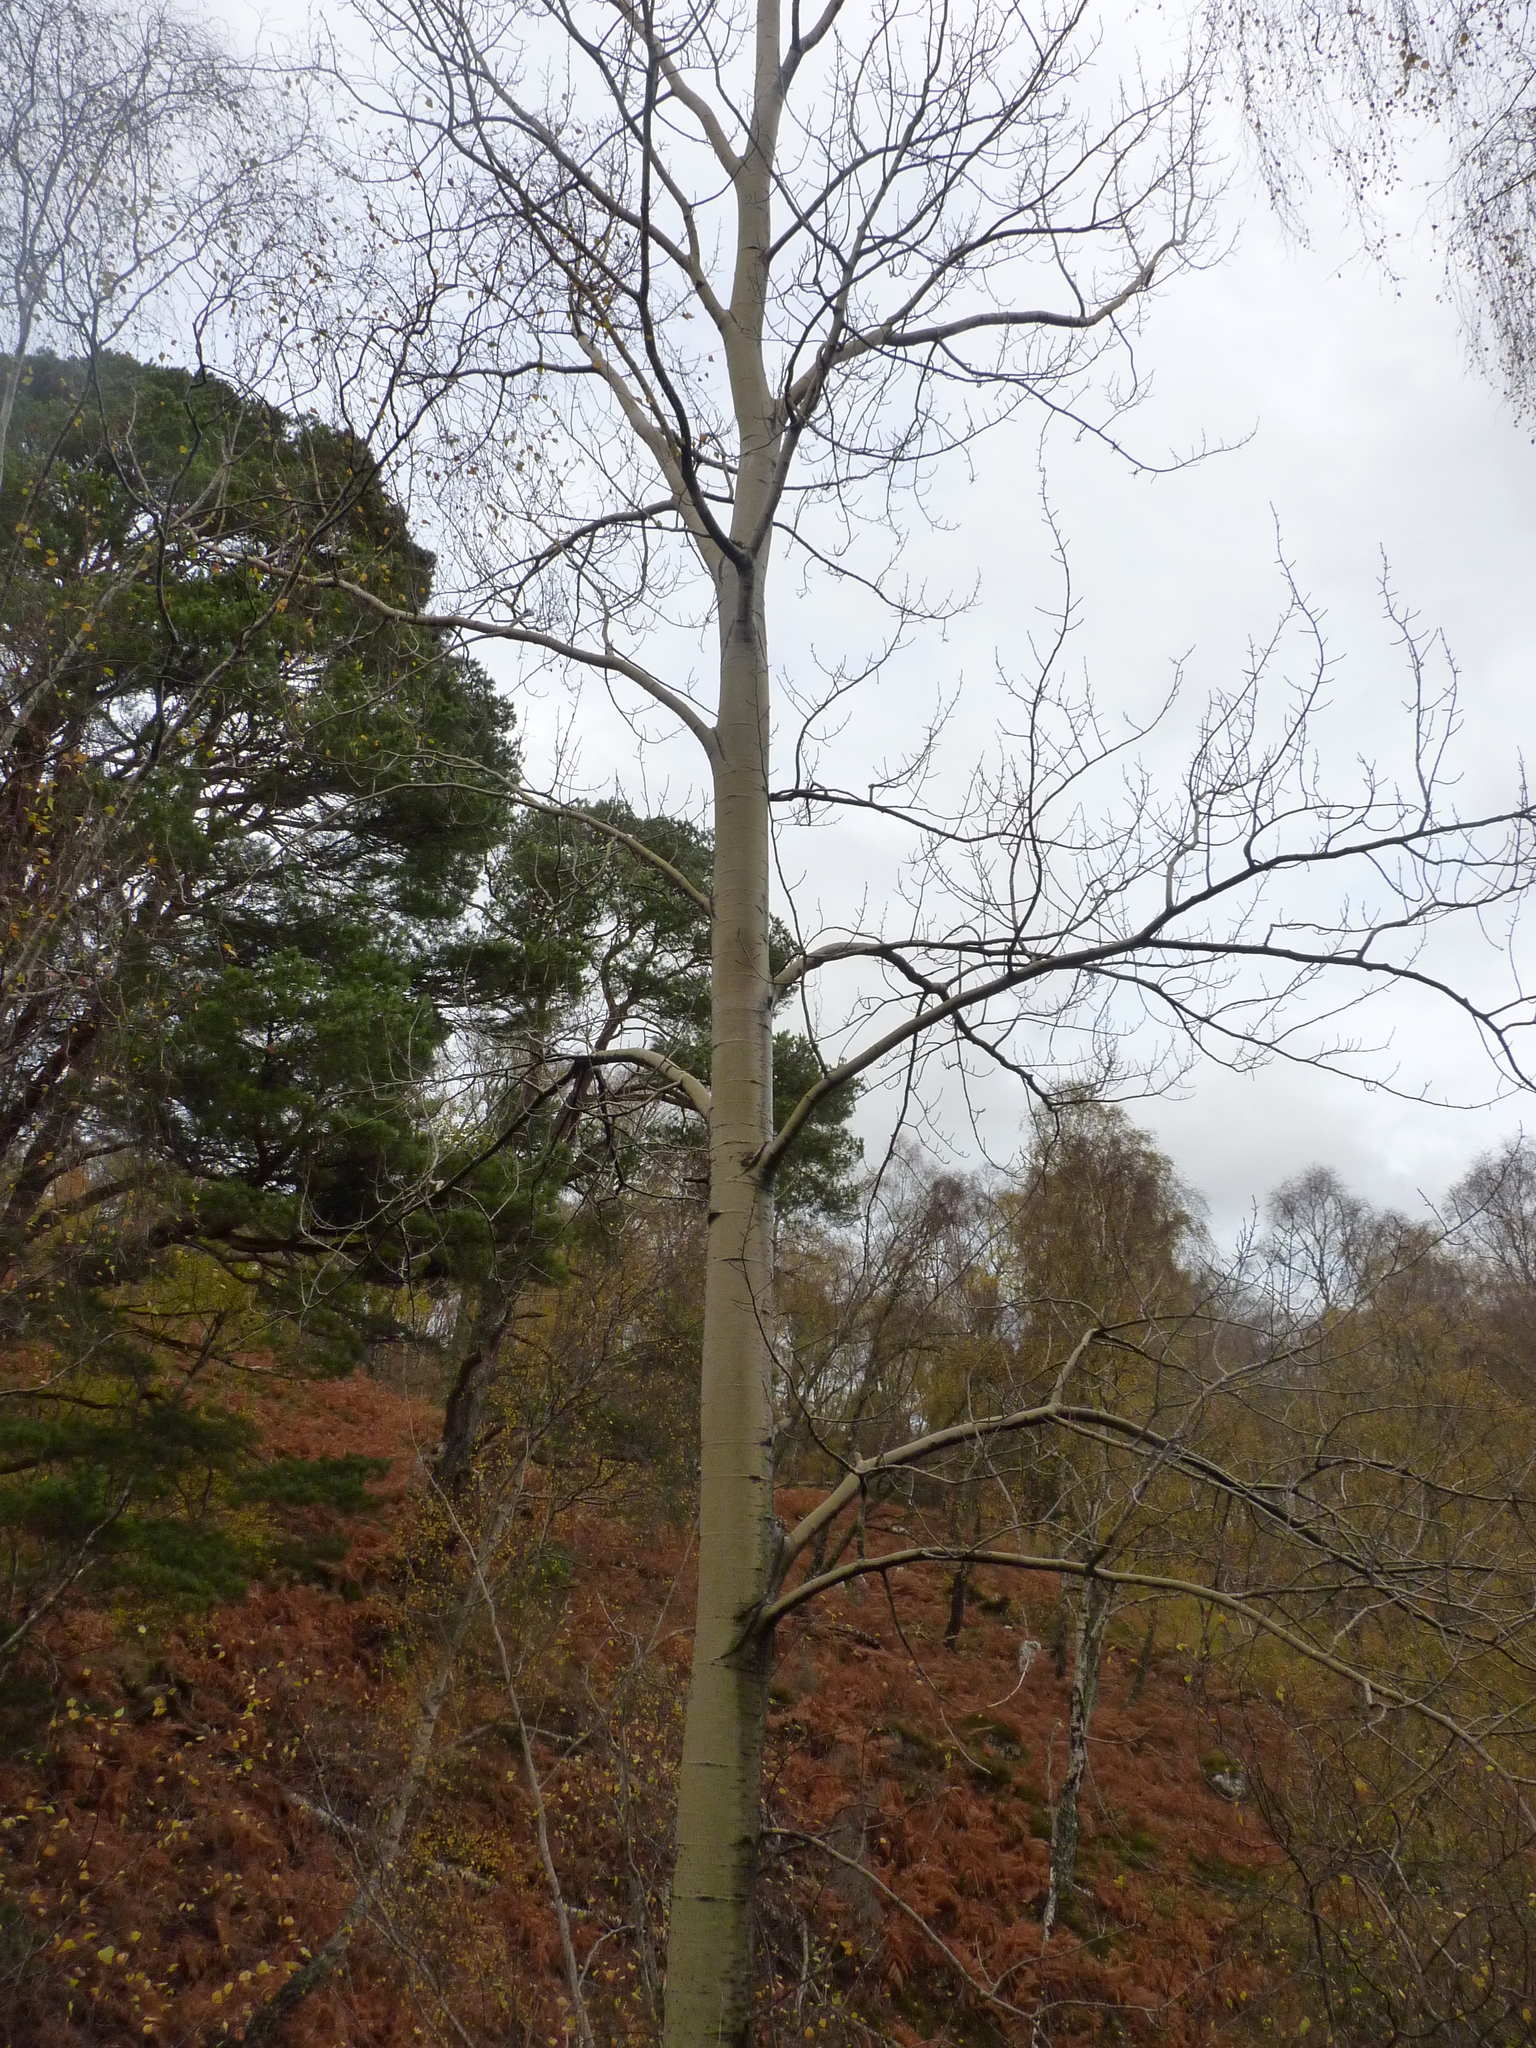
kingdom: Plantae
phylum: Tracheophyta
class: Magnoliopsida
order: Malpighiales
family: Salicaceae
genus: Populus
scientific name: Populus tremula
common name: European aspen
